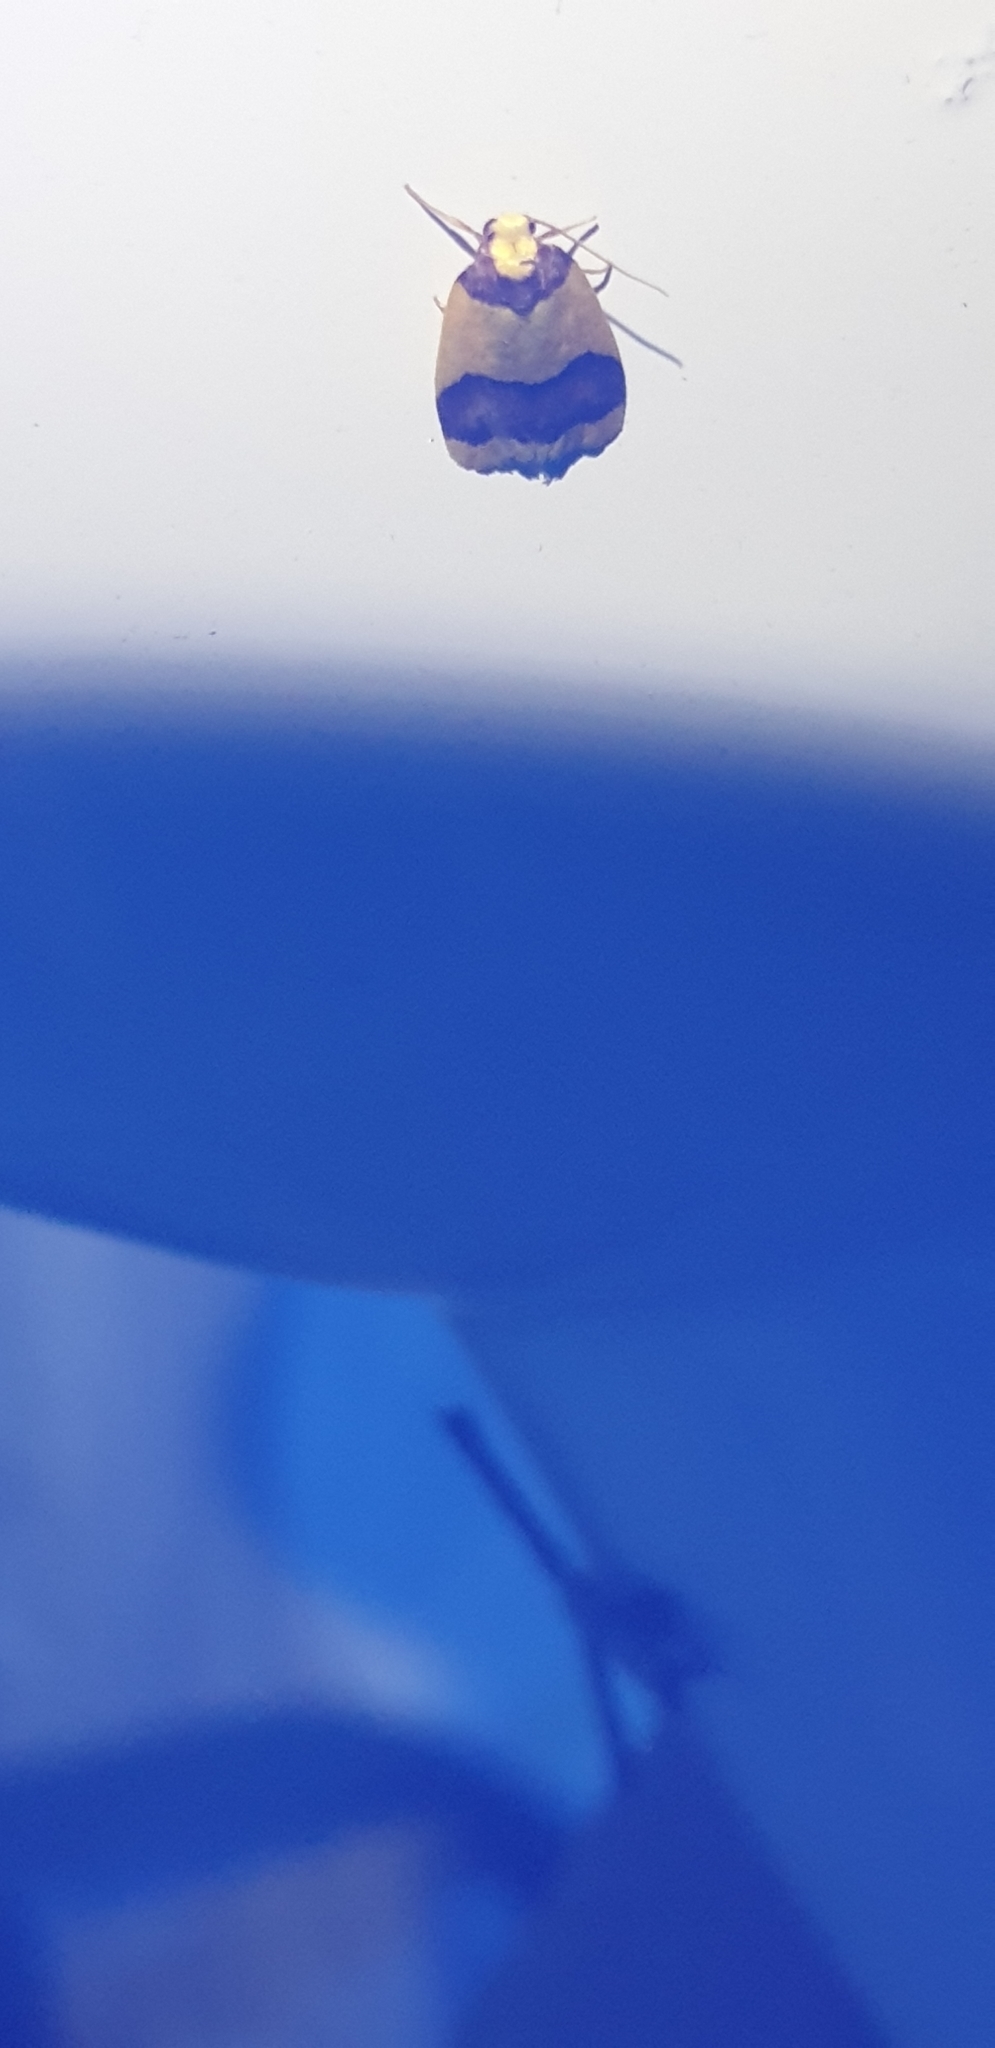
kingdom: Animalia
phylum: Arthropoda
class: Insecta
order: Lepidoptera
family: Erebidae
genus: Heterallactis
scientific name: Heterallactis microchrysa
